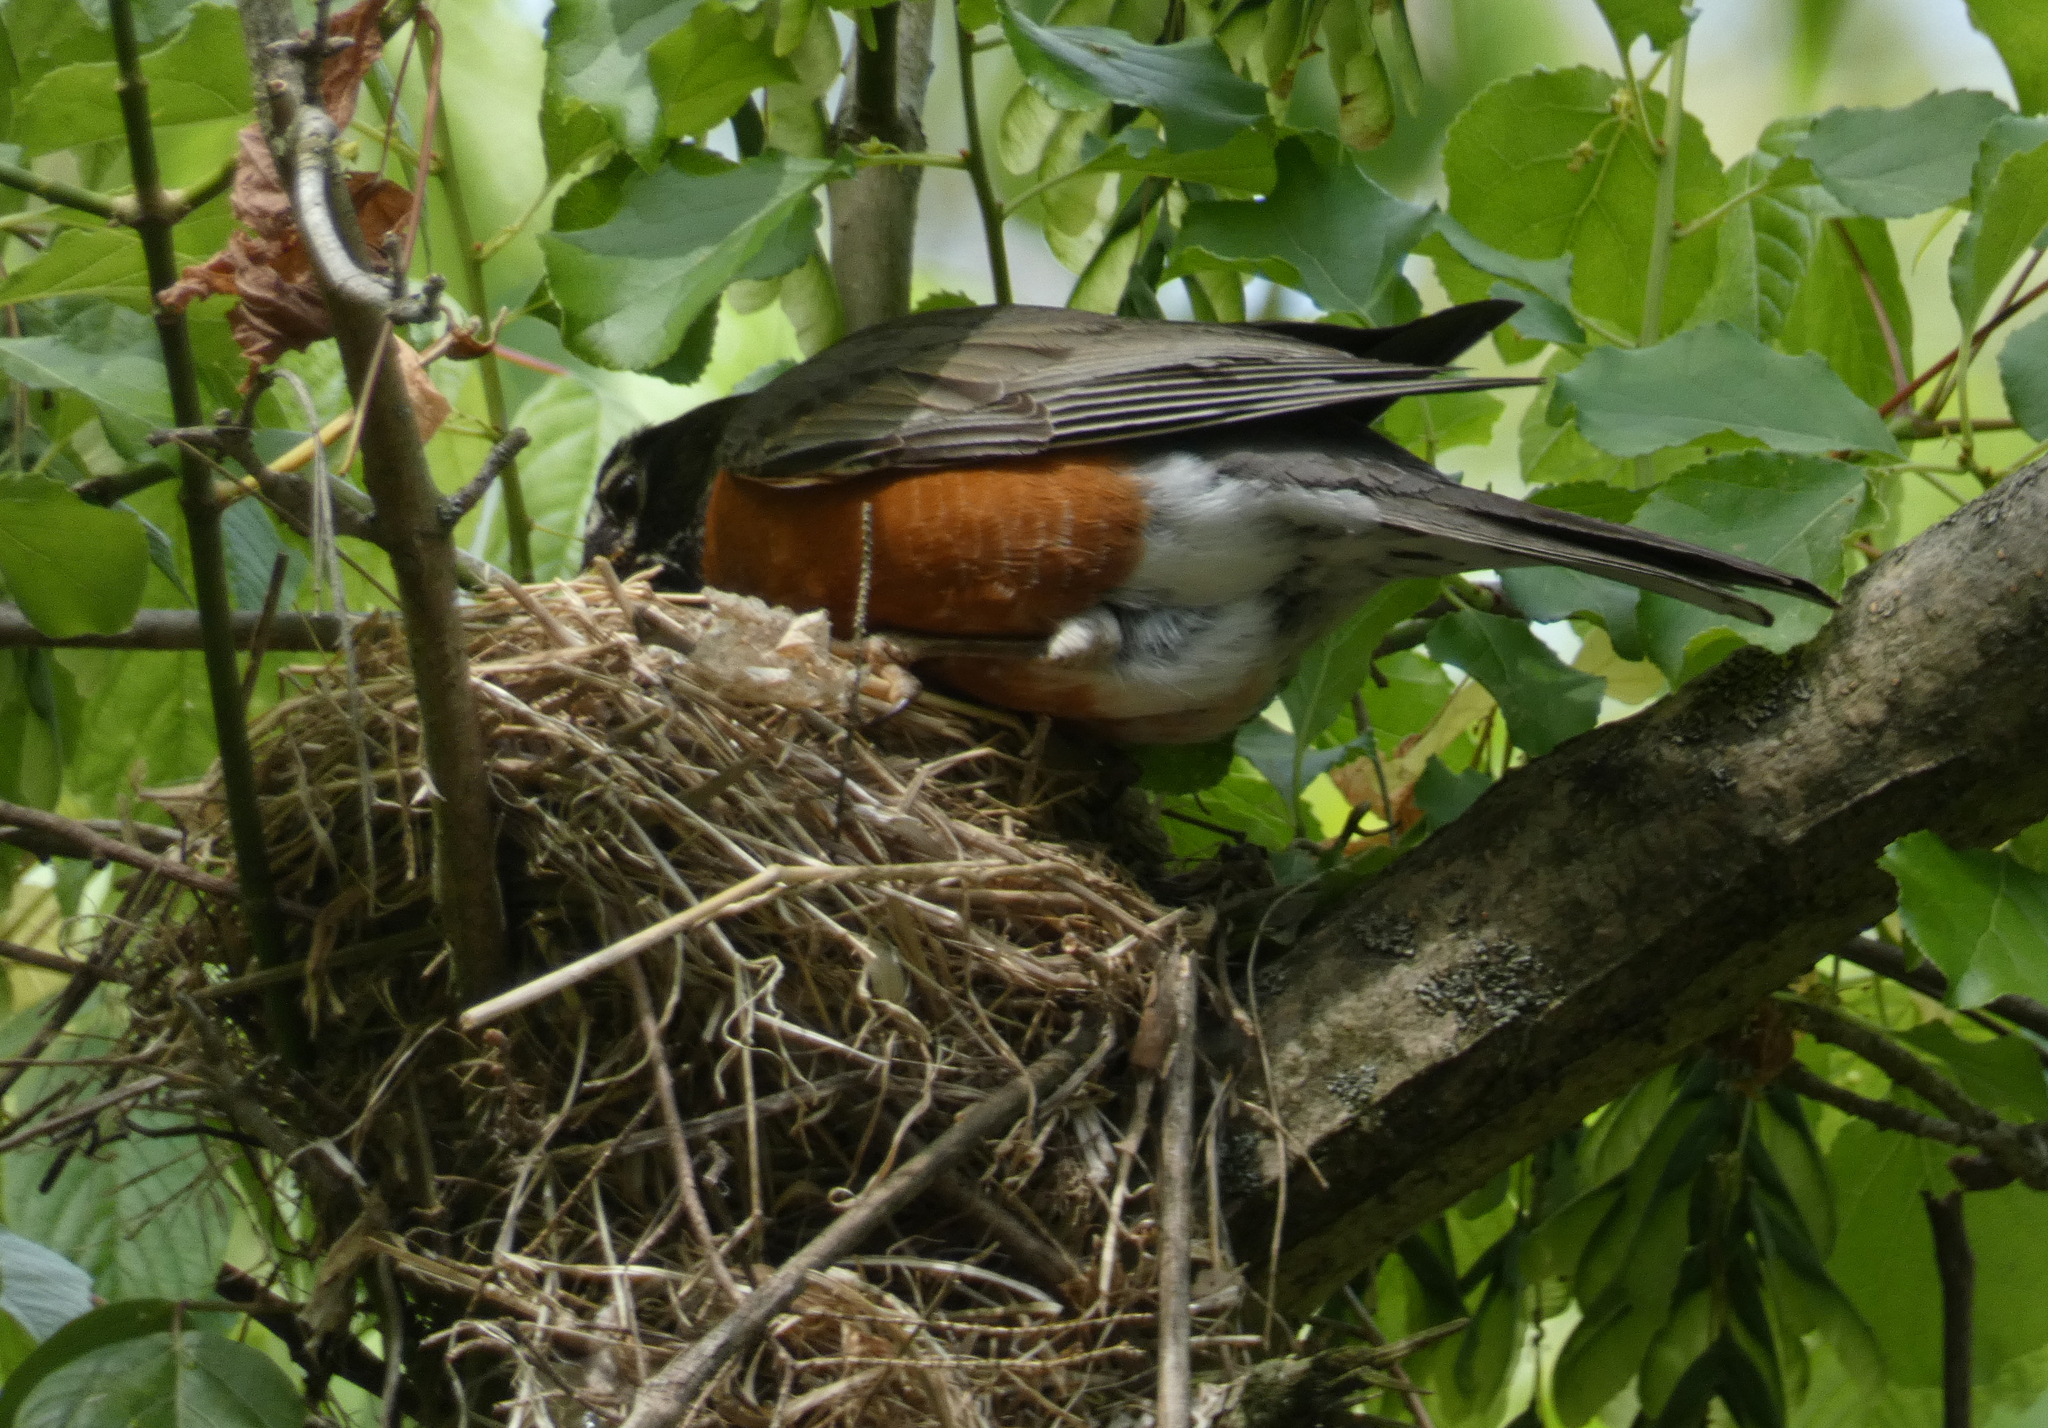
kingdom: Animalia
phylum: Chordata
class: Aves
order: Passeriformes
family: Turdidae
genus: Turdus
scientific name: Turdus migratorius
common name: American robin
